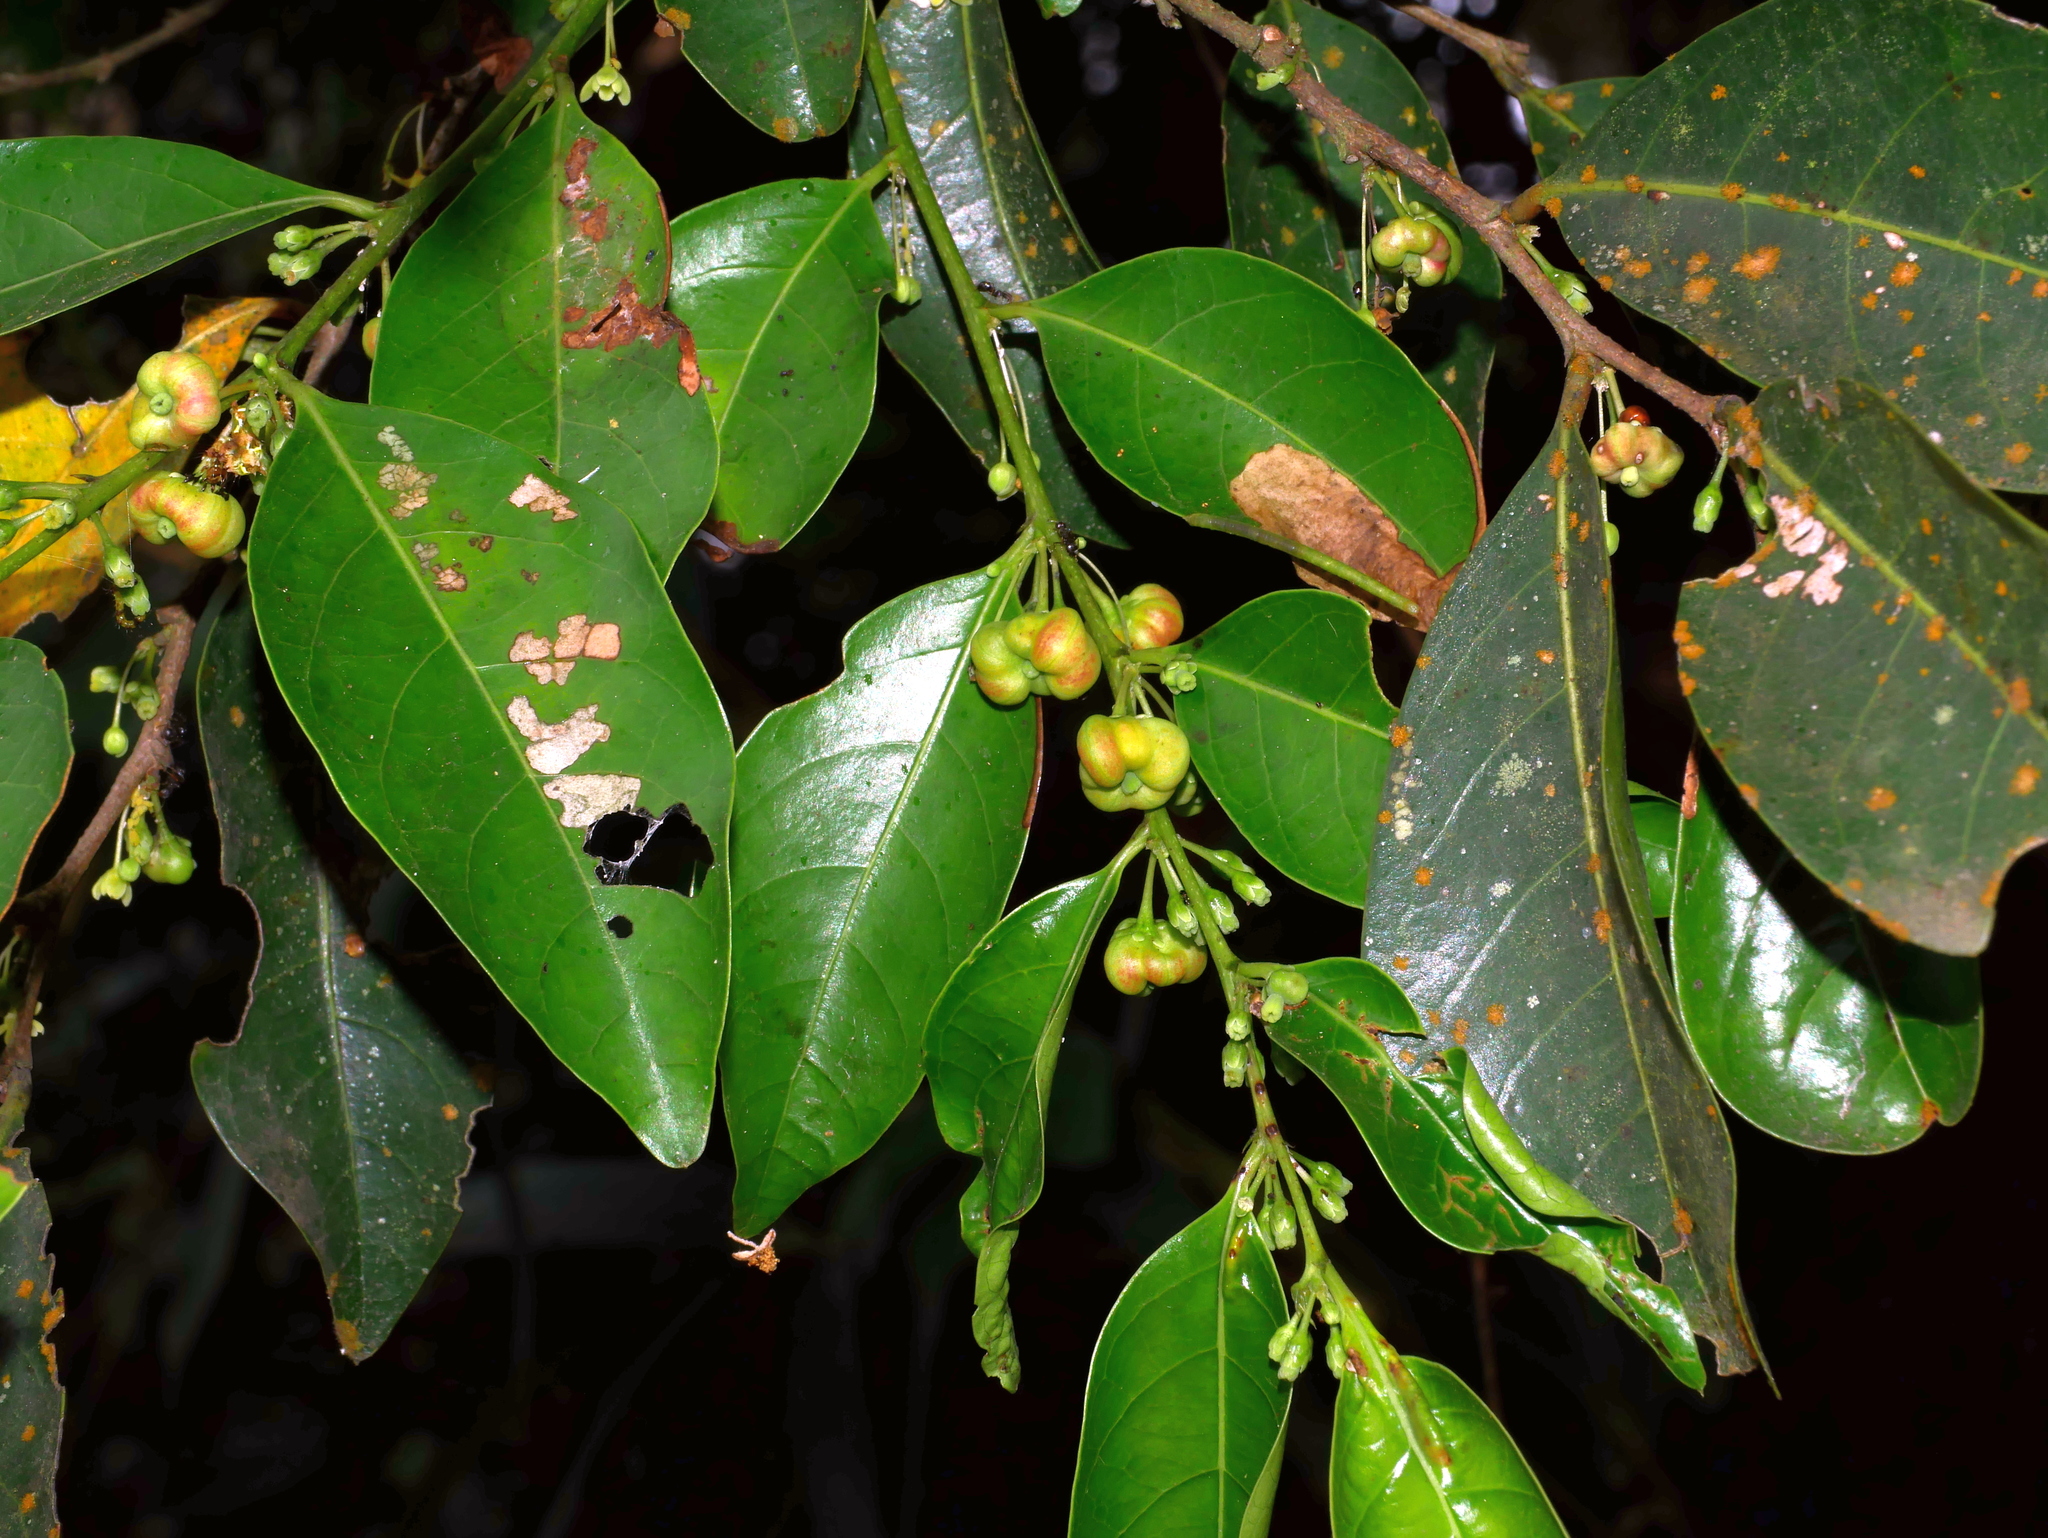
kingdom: Plantae
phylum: Tracheophyta
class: Magnoliopsida
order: Malpighiales
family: Phyllanthaceae
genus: Glochidion
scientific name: Glochidion rubrum
